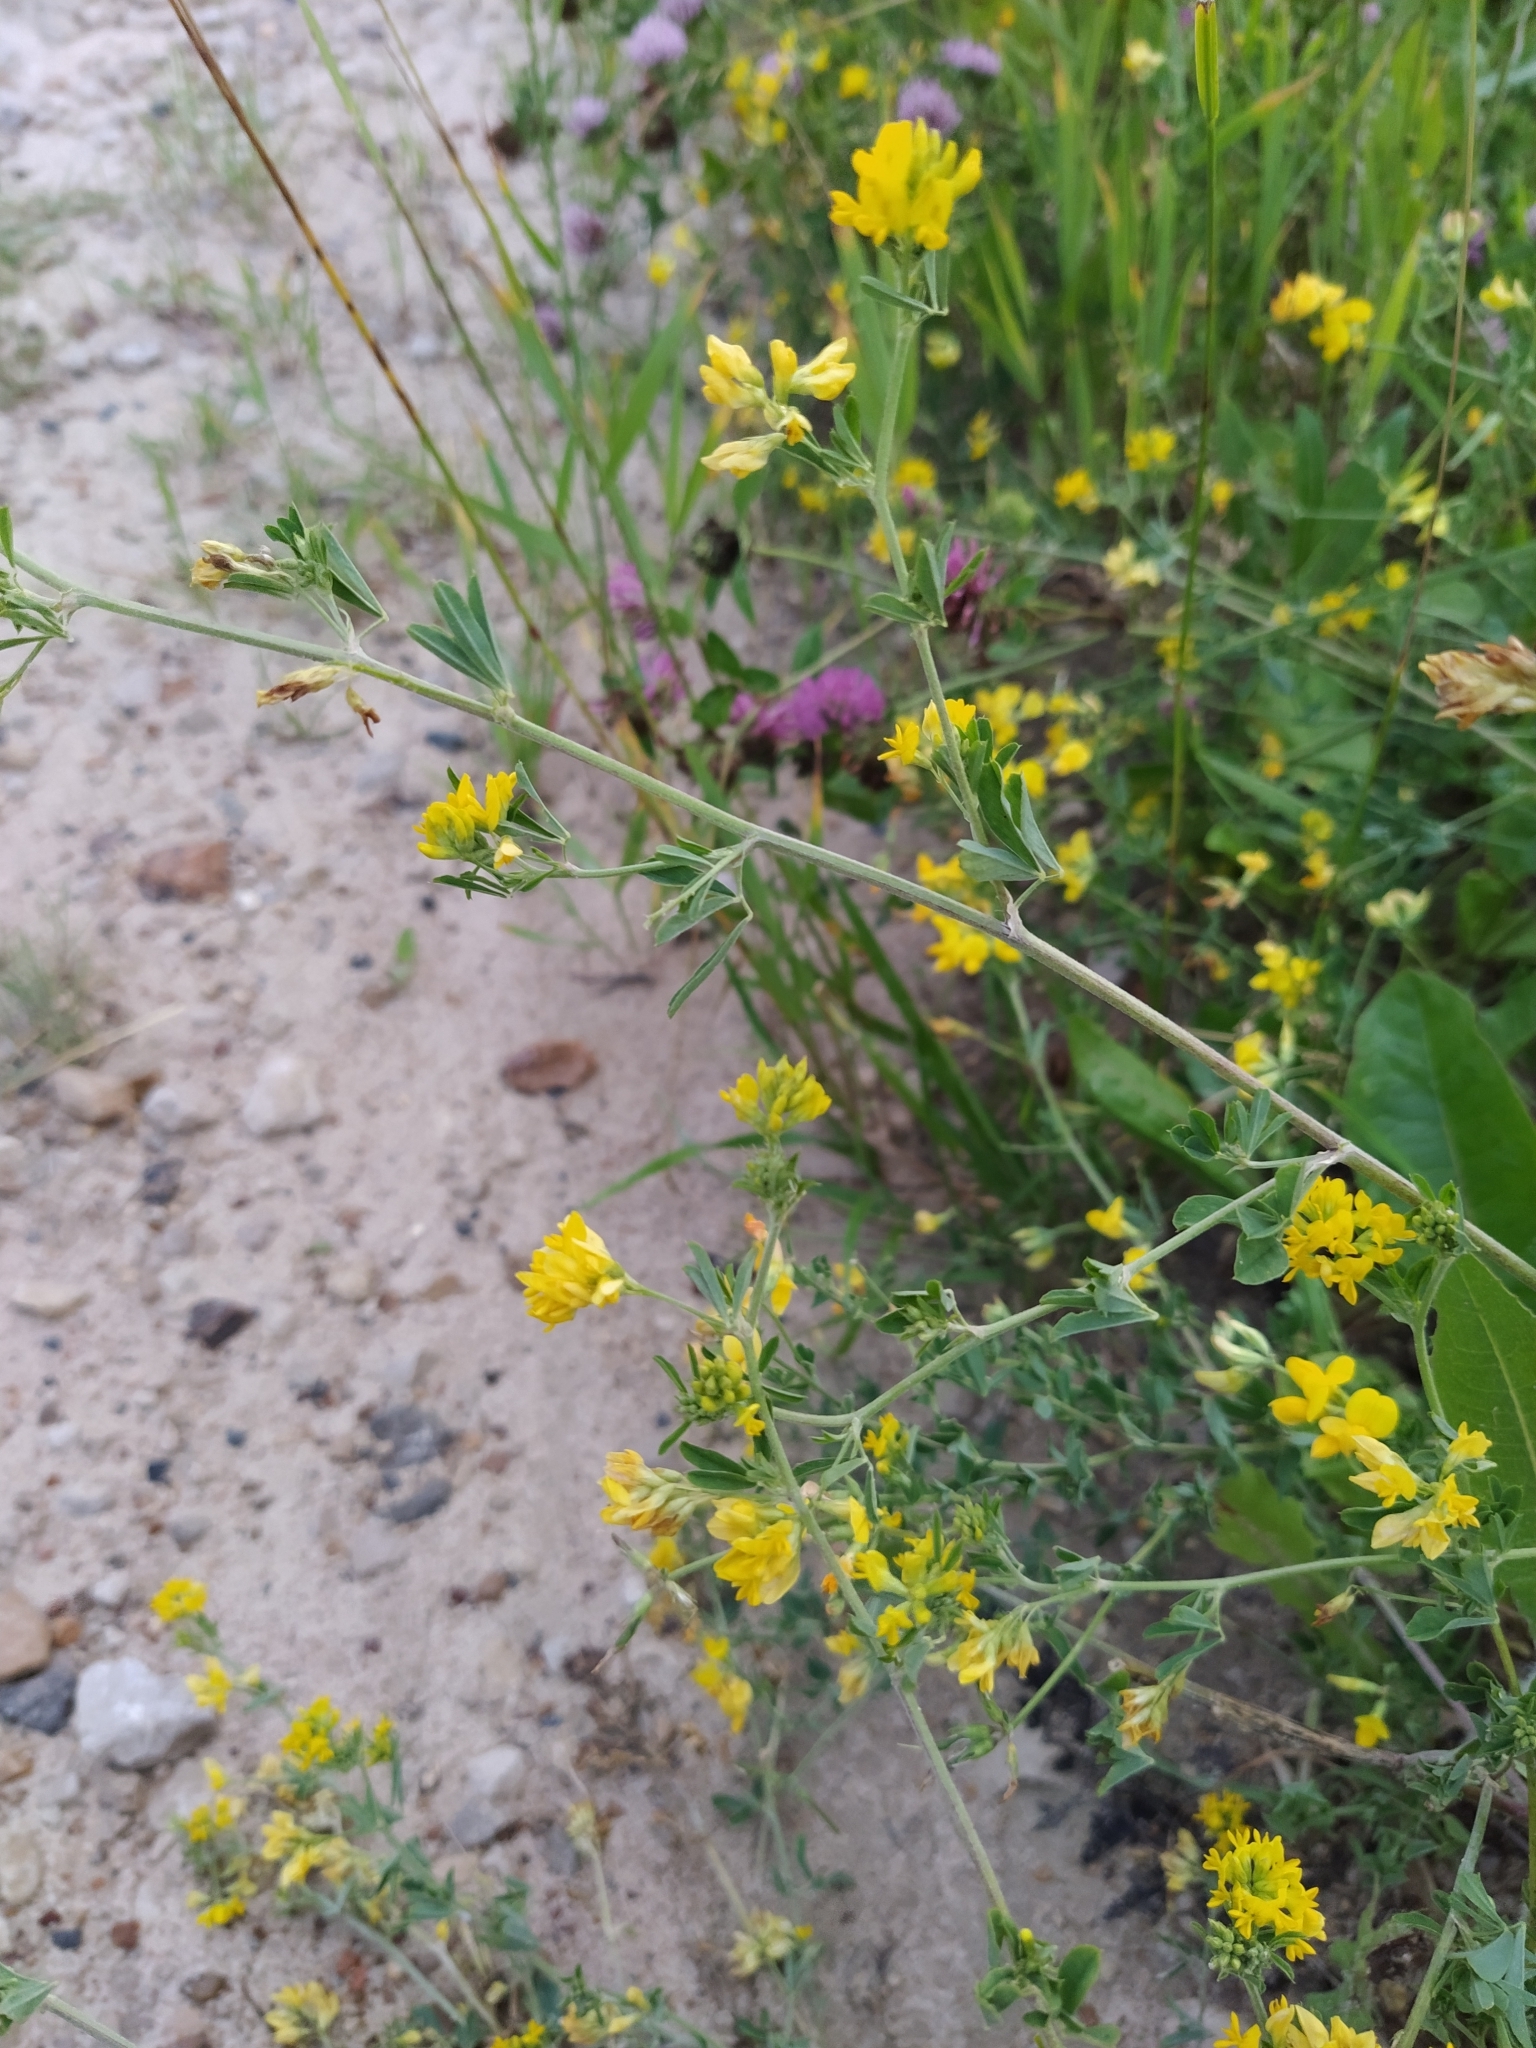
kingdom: Plantae
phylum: Tracheophyta
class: Magnoliopsida
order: Fabales
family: Fabaceae
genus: Medicago
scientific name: Medicago falcata
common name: Sickle medick
